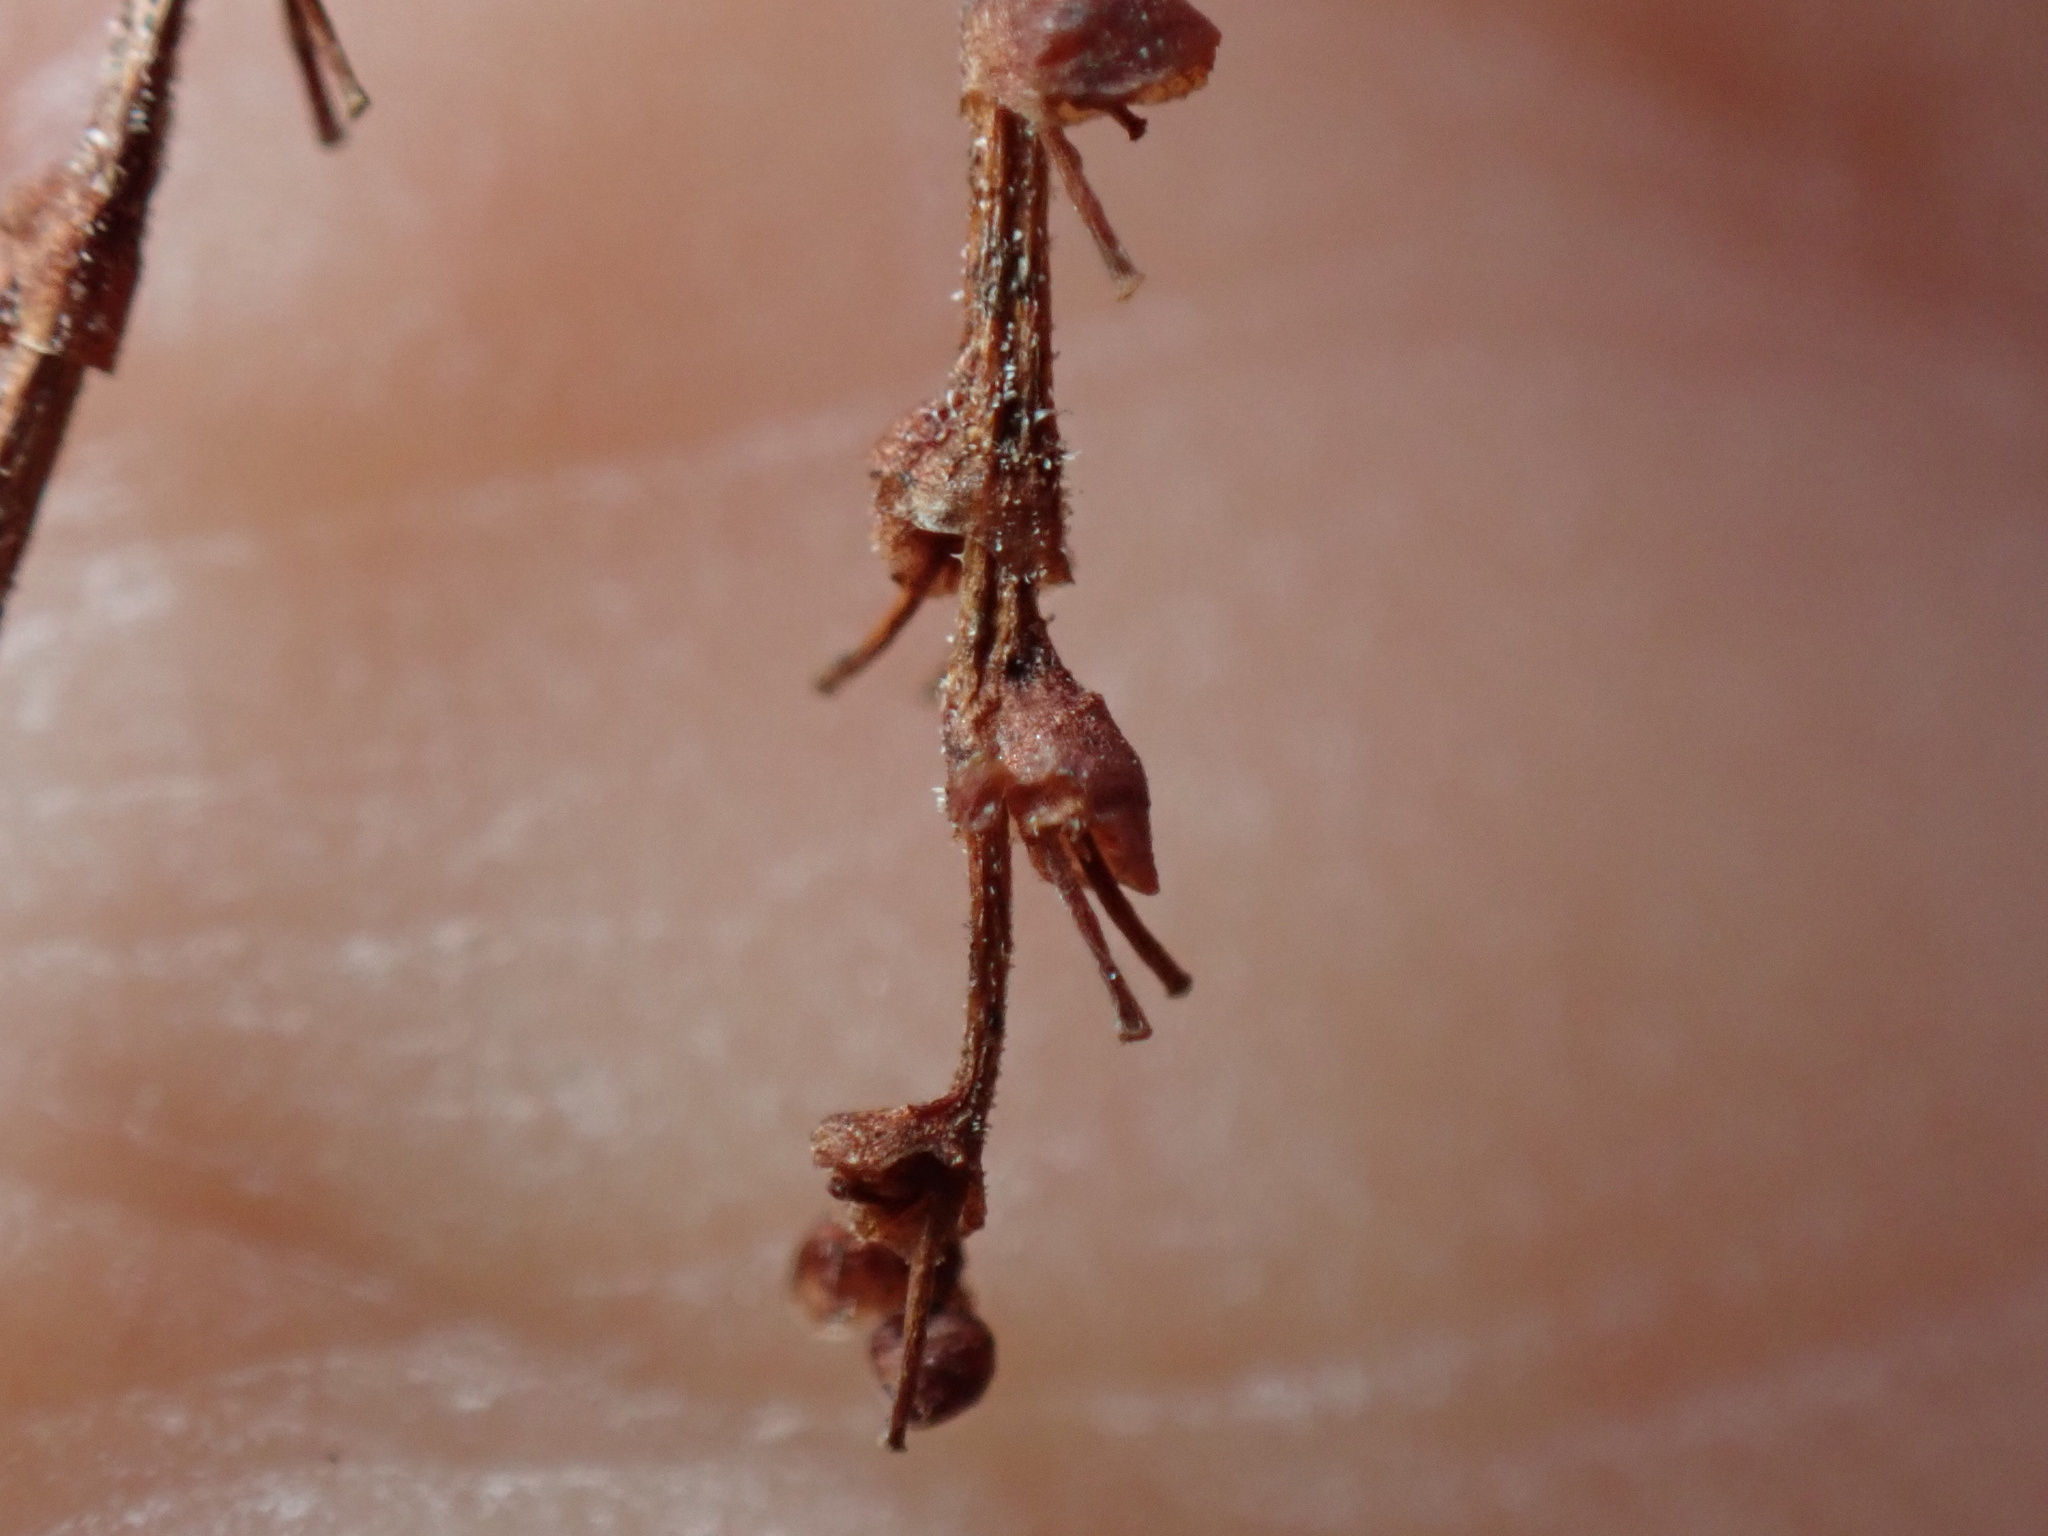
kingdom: Plantae
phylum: Tracheophyta
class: Magnoliopsida
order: Caryophyllales
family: Polygonaceae
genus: Reynoutria
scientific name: Reynoutria japonica
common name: Japanese knotweed
